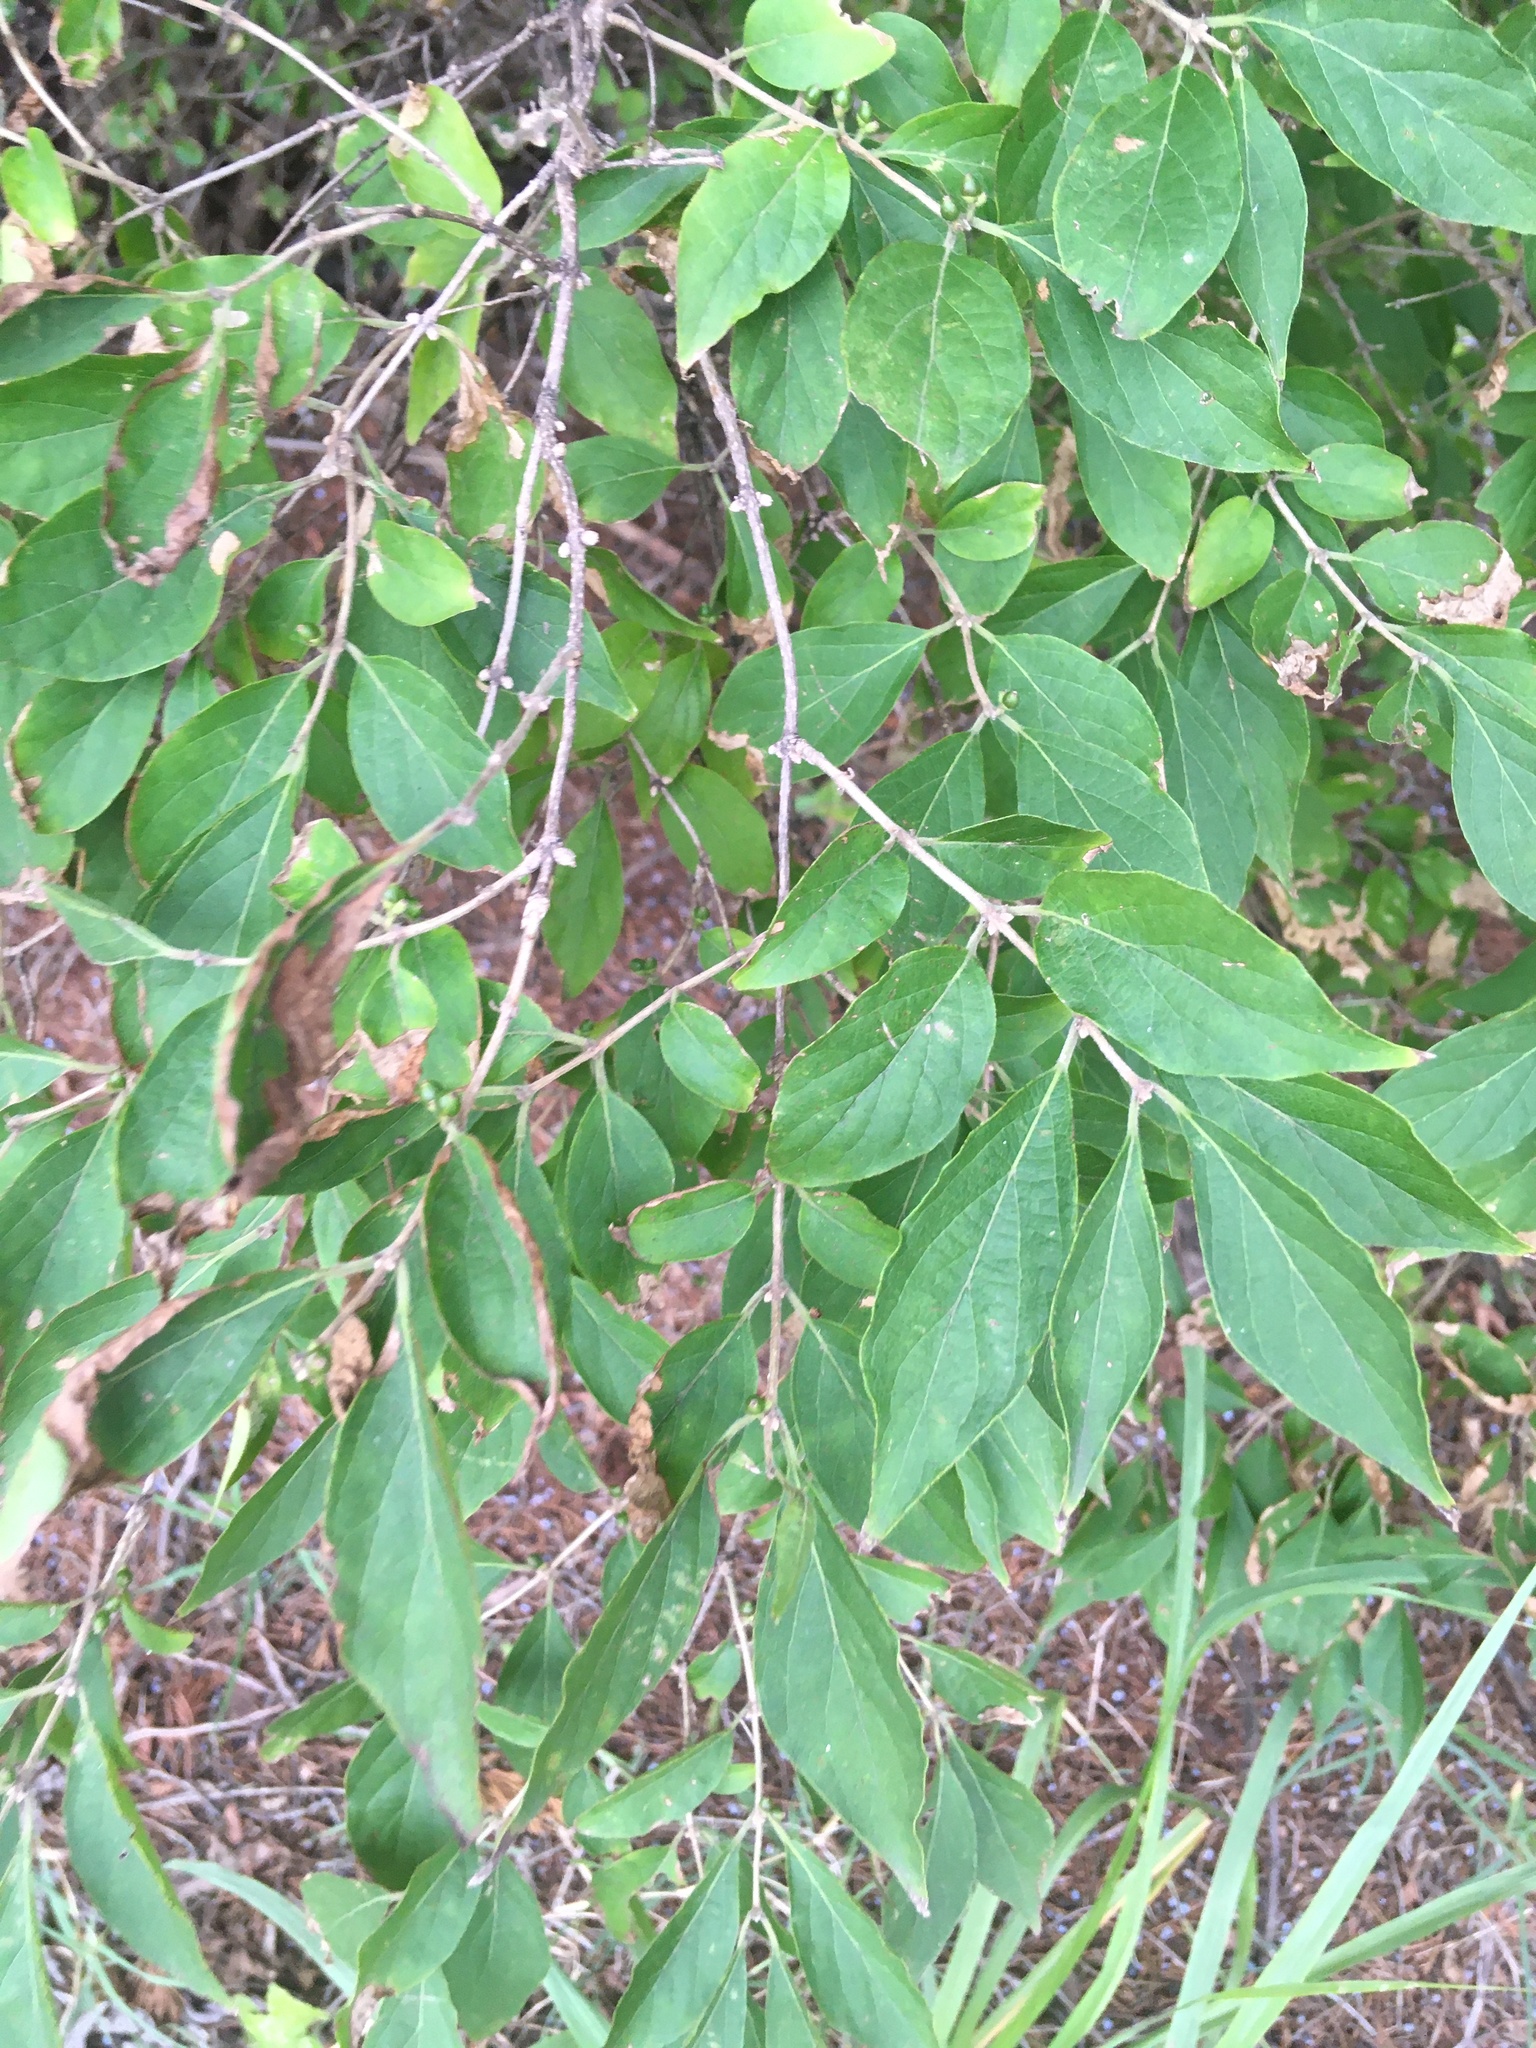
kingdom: Plantae
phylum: Tracheophyta
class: Magnoliopsida
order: Dipsacales
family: Caprifoliaceae
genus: Lonicera
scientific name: Lonicera maackii
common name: Amur honeysuckle
